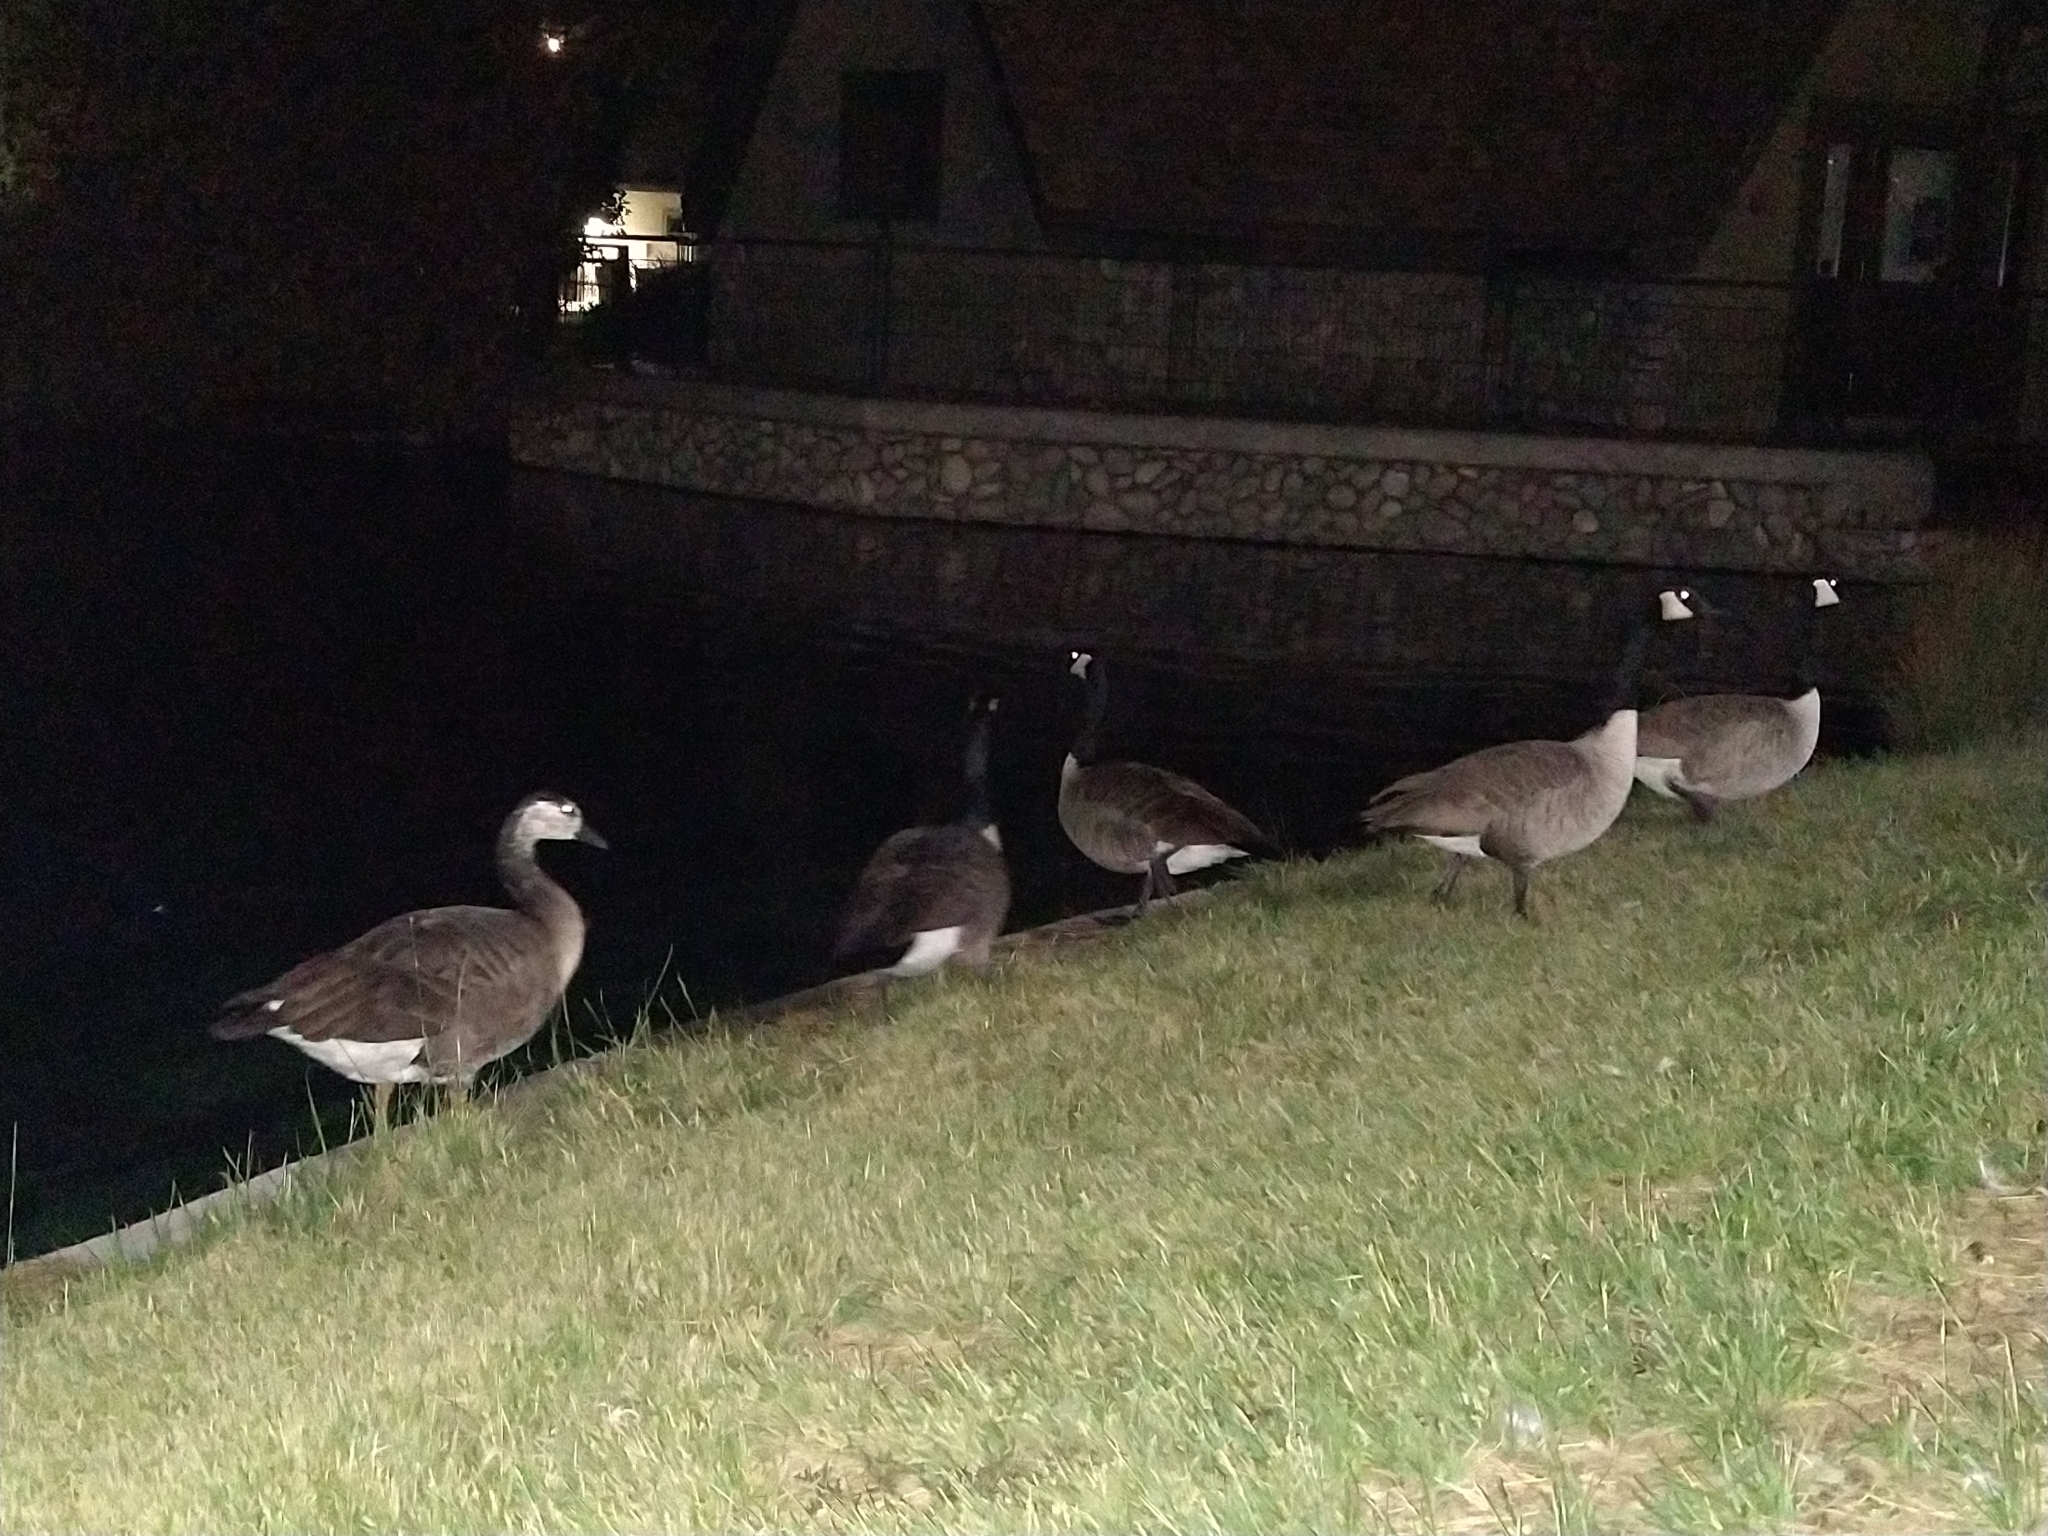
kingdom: Animalia
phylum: Chordata
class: Aves
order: Anseriformes
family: Anatidae
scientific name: Anatidae
